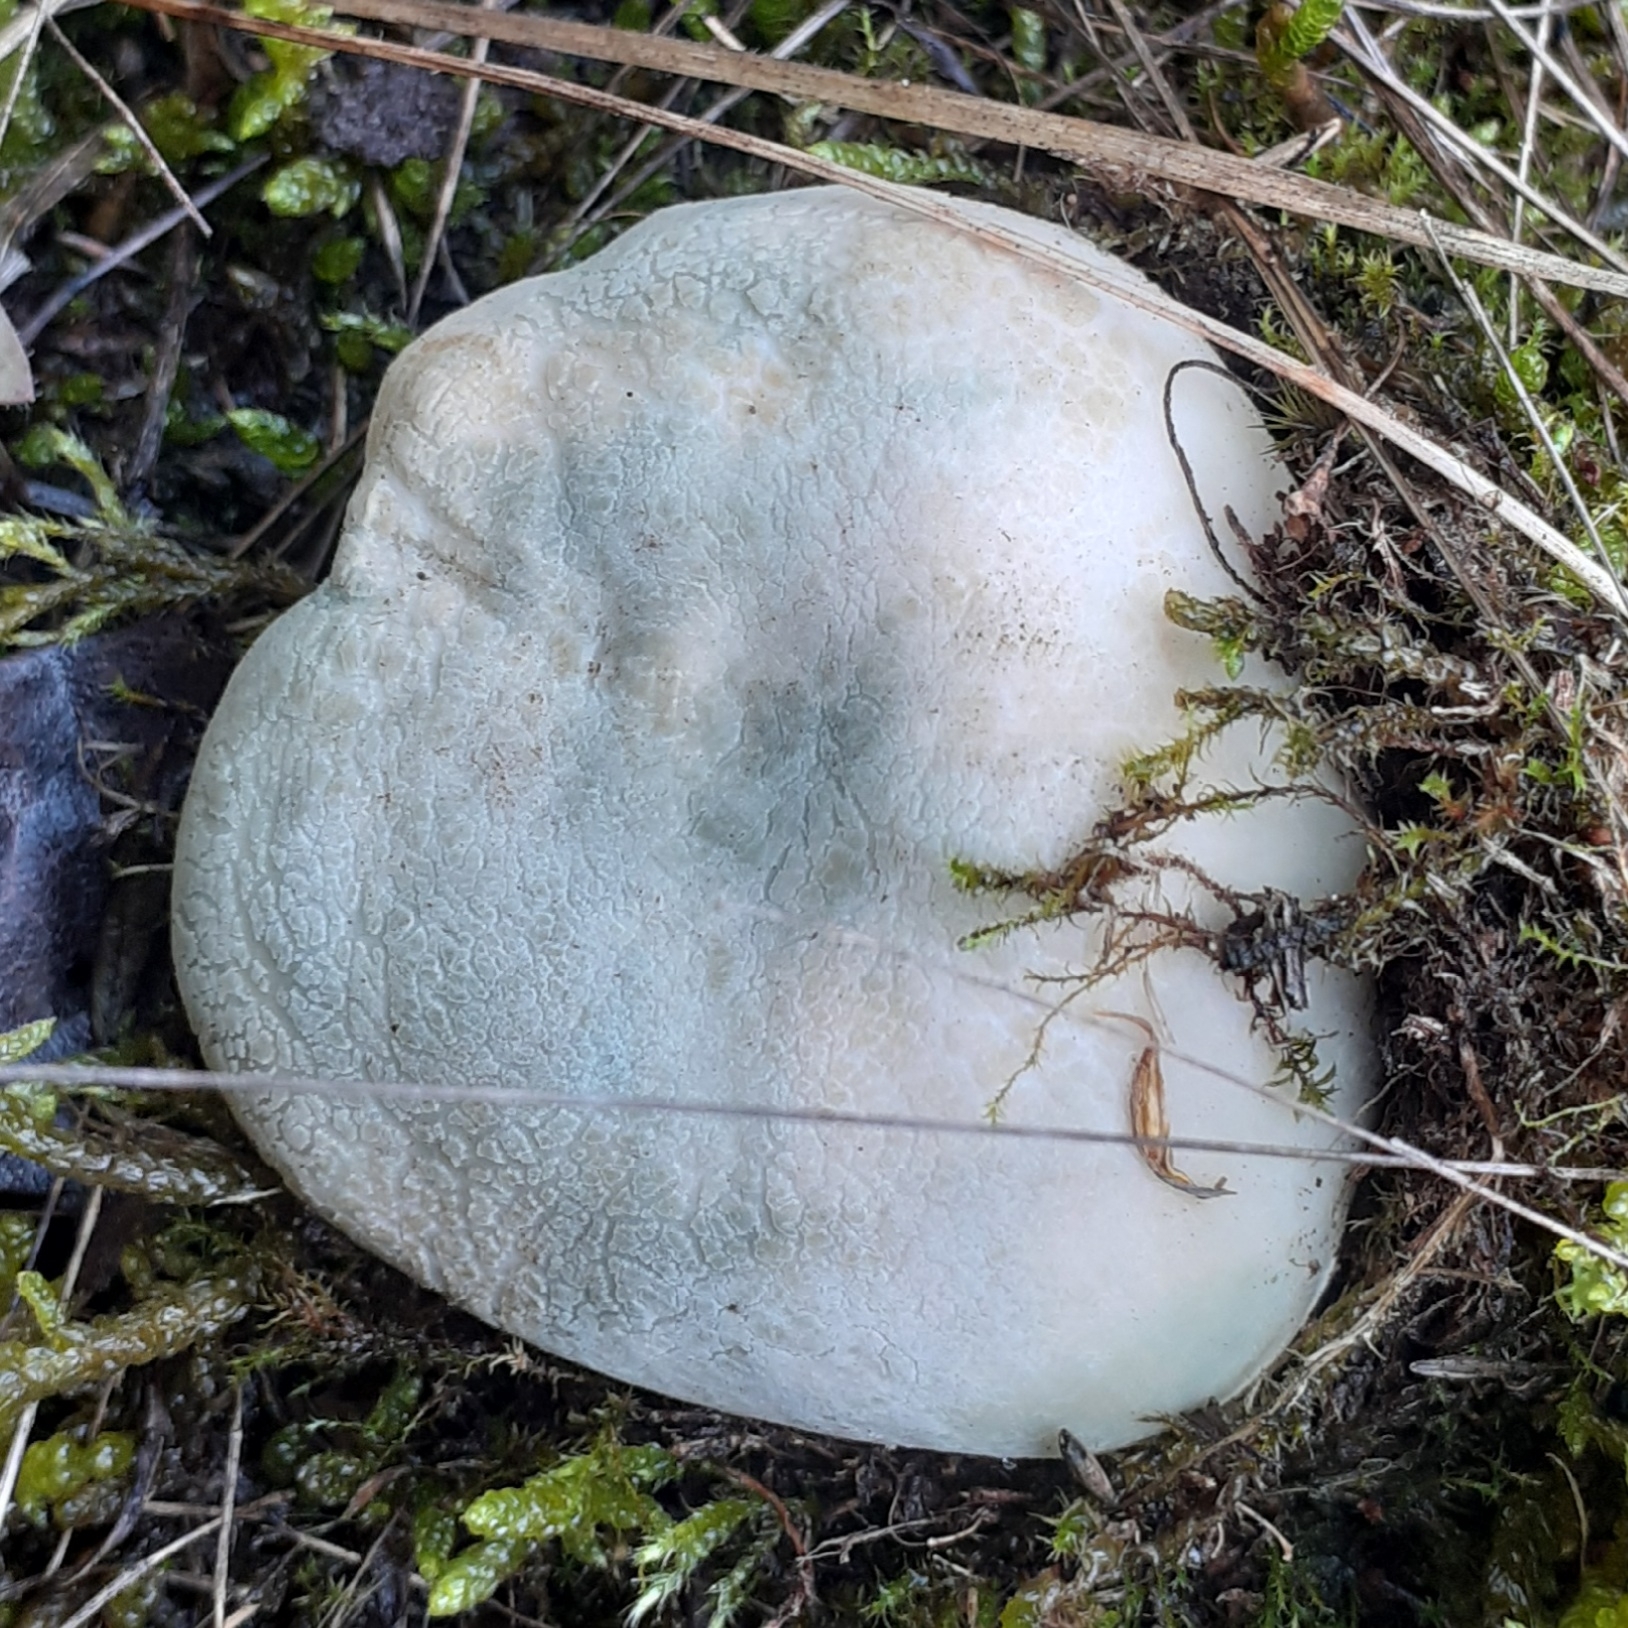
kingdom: Fungi
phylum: Basidiomycota
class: Agaricomycetes
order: Russulales
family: Russulaceae
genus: Russula
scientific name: Russula virescens
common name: Greencracked brittlegill
